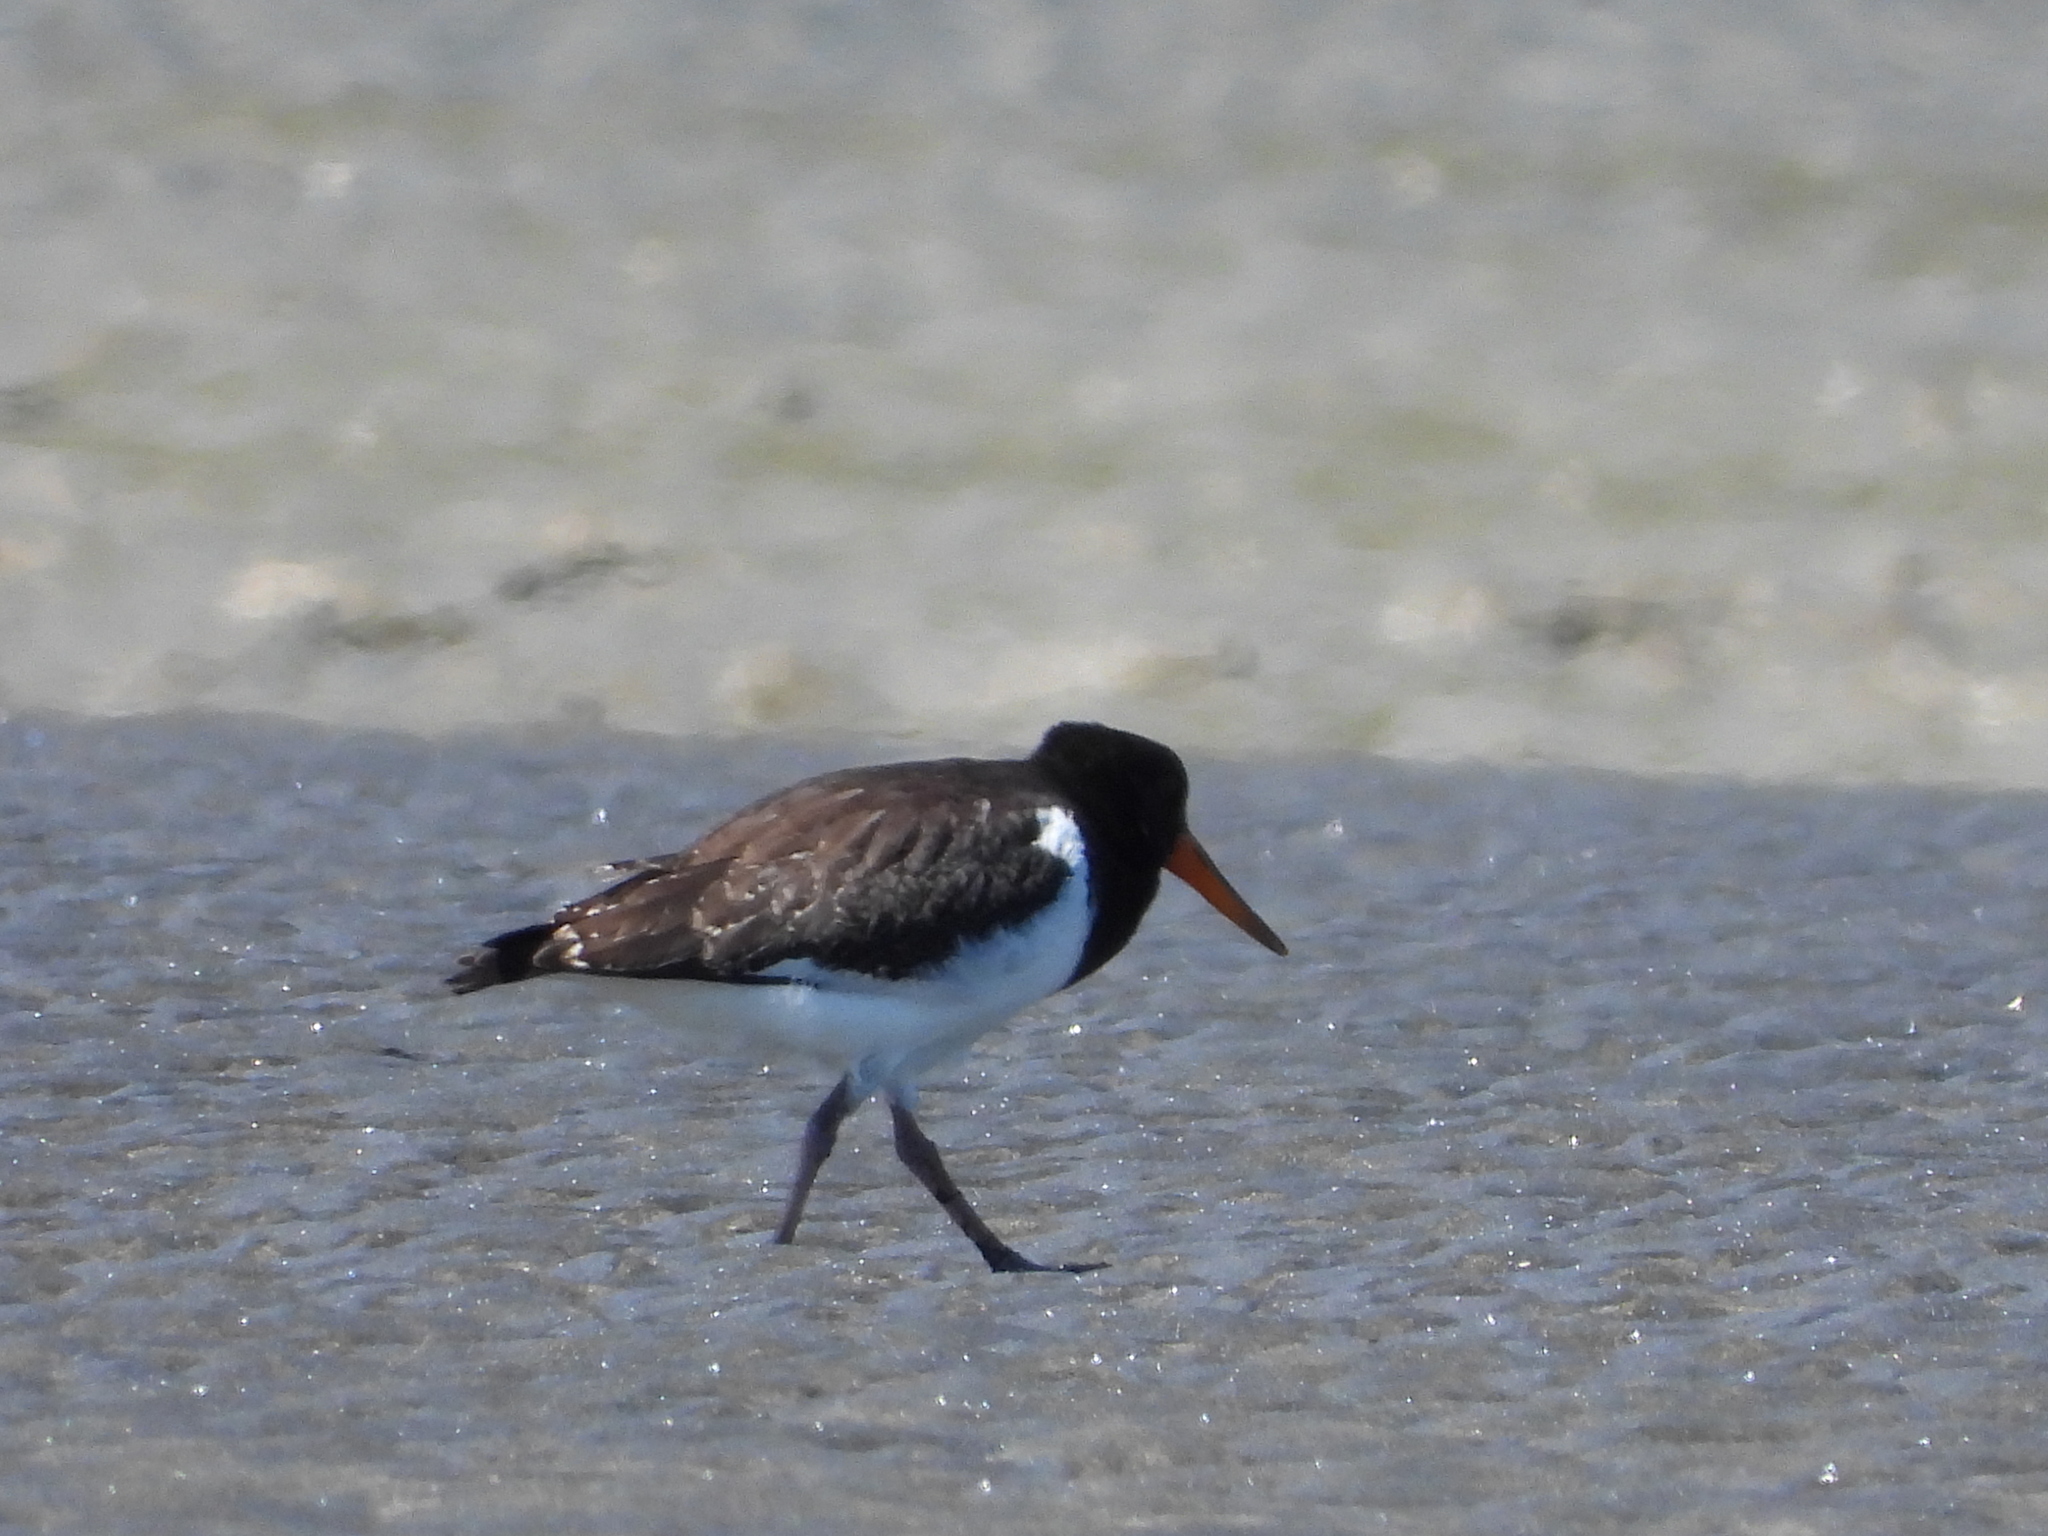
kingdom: Animalia
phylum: Chordata
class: Aves
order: Charadriiformes
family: Haematopodidae
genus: Haematopus
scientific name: Haematopus unicolor
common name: Variable oystercatcher
